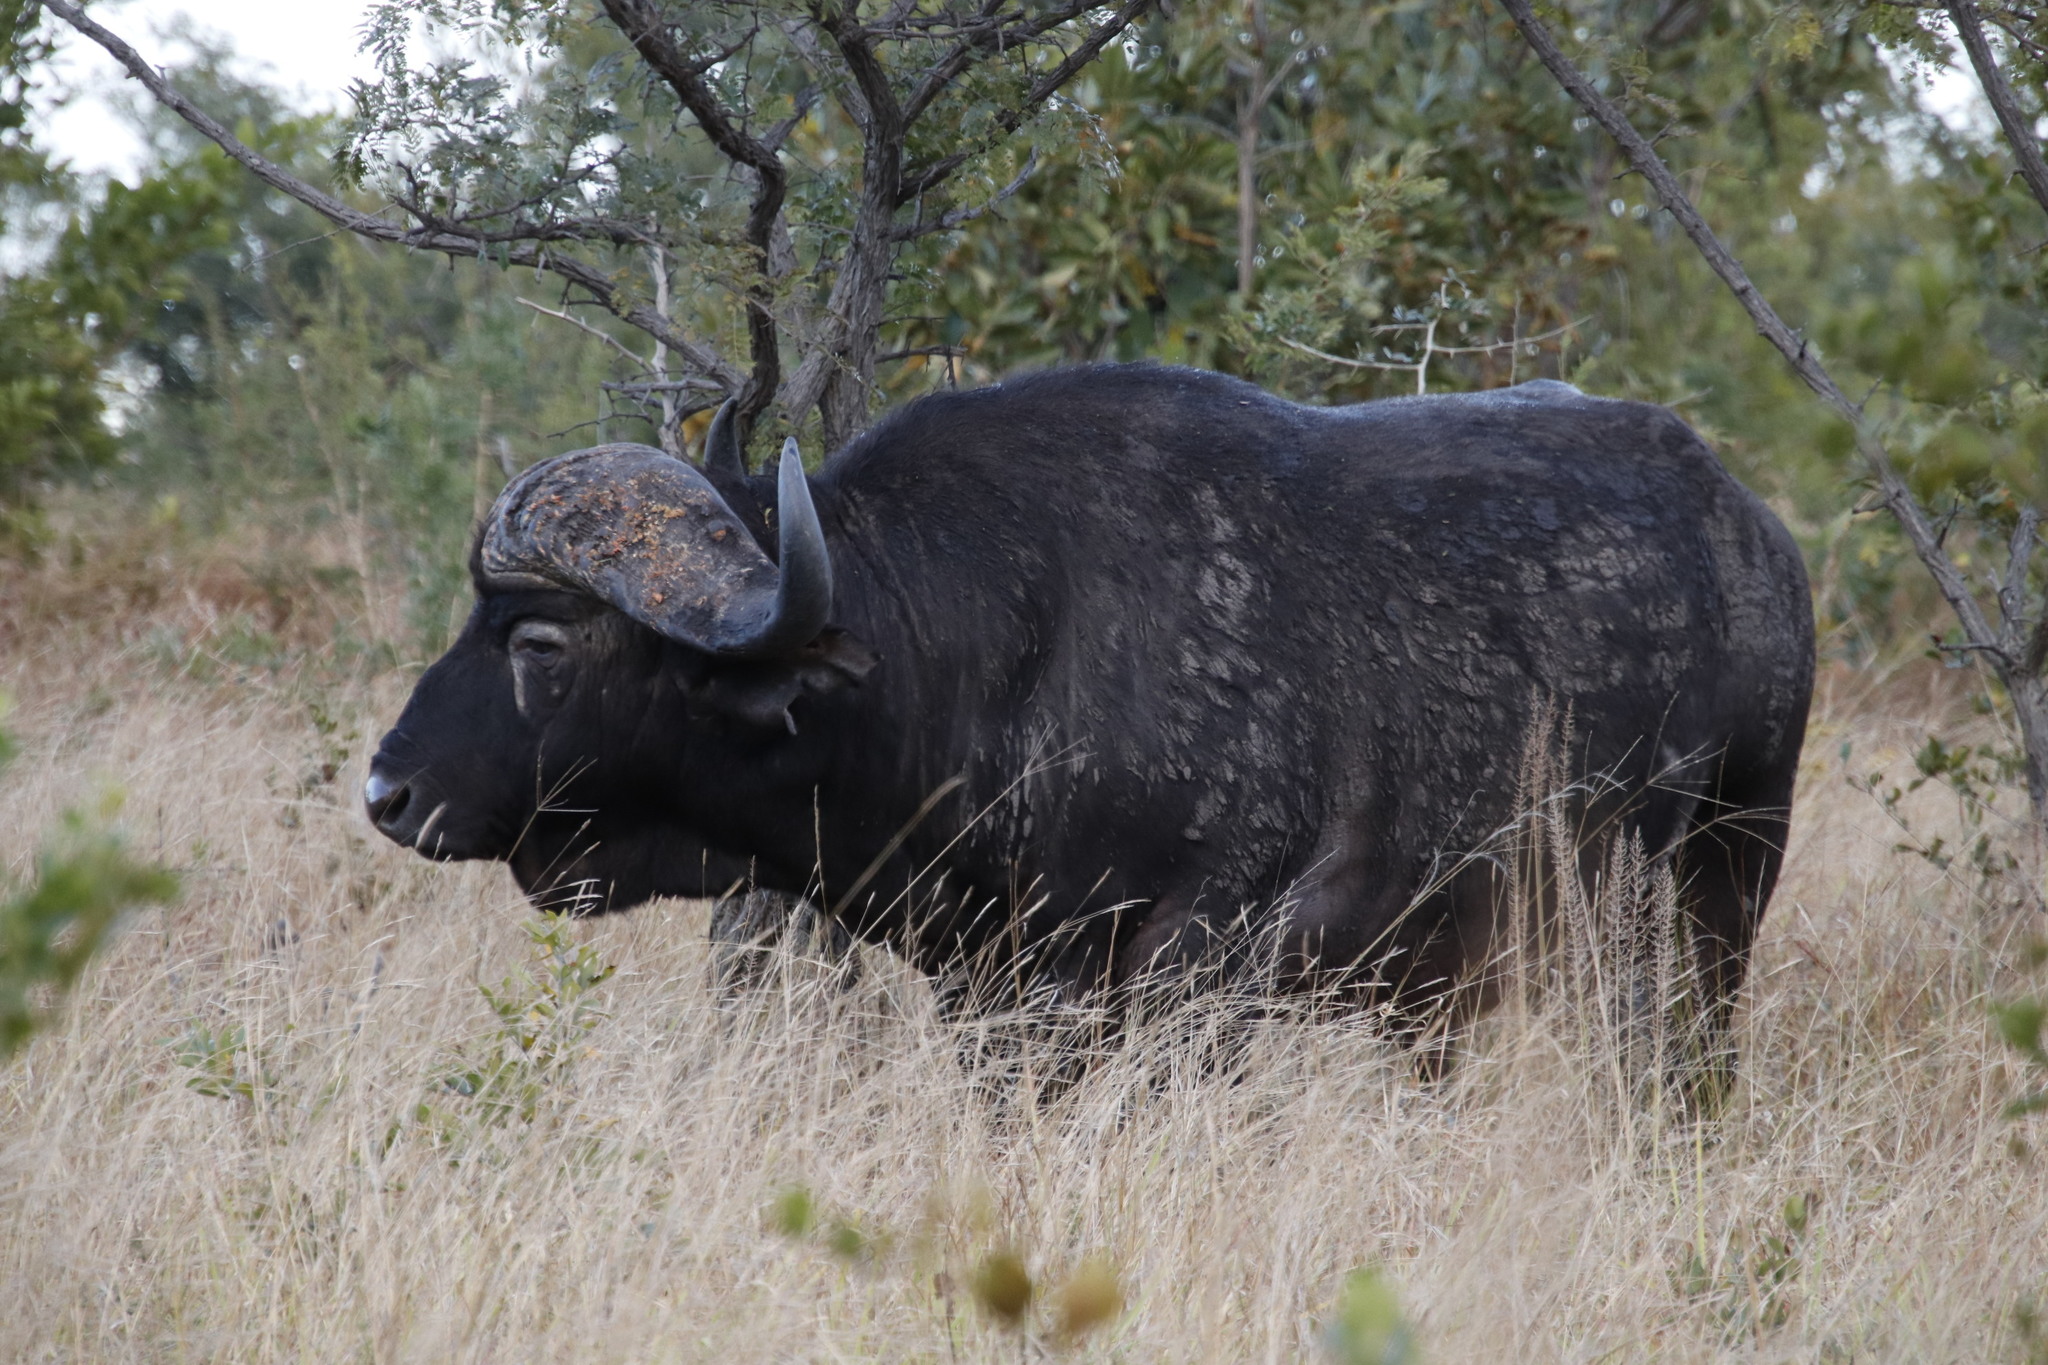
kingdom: Animalia
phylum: Chordata
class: Mammalia
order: Artiodactyla
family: Bovidae
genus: Syncerus
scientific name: Syncerus caffer
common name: African buffalo
